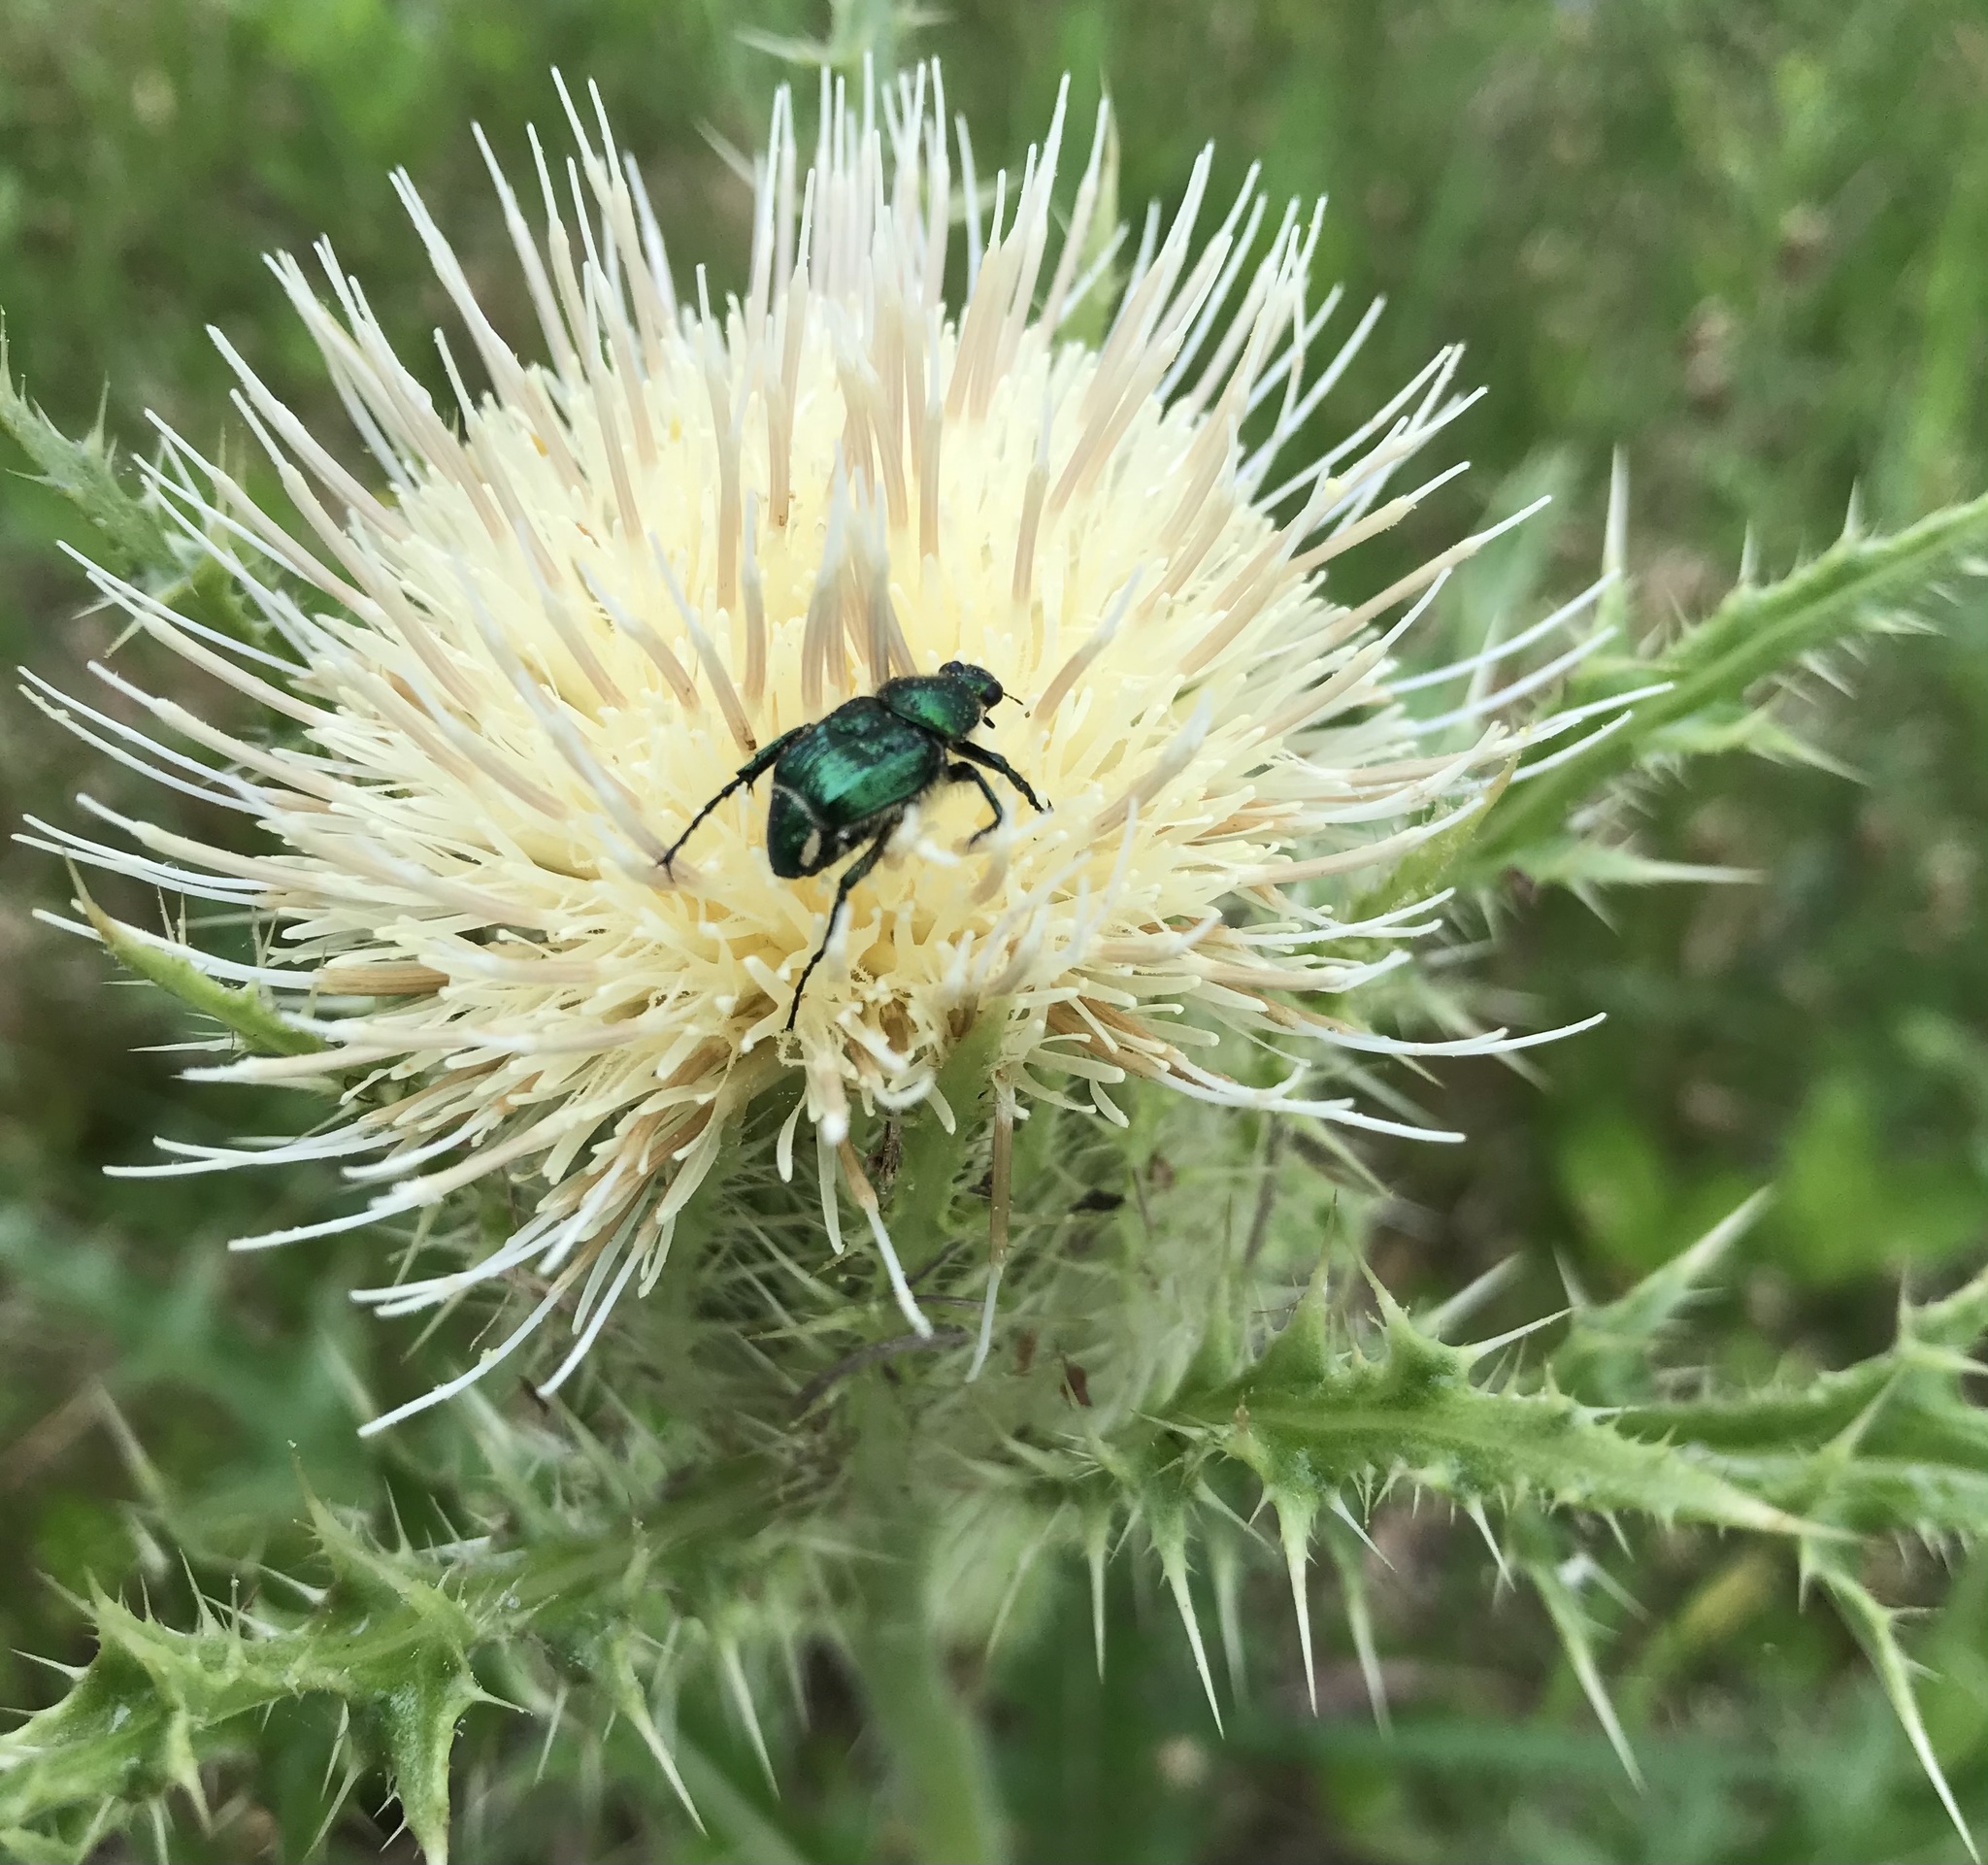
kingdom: Animalia
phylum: Arthropoda
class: Insecta
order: Coleoptera
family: Scarabaeidae
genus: Trichiotinus
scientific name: Trichiotinus lunulatus
